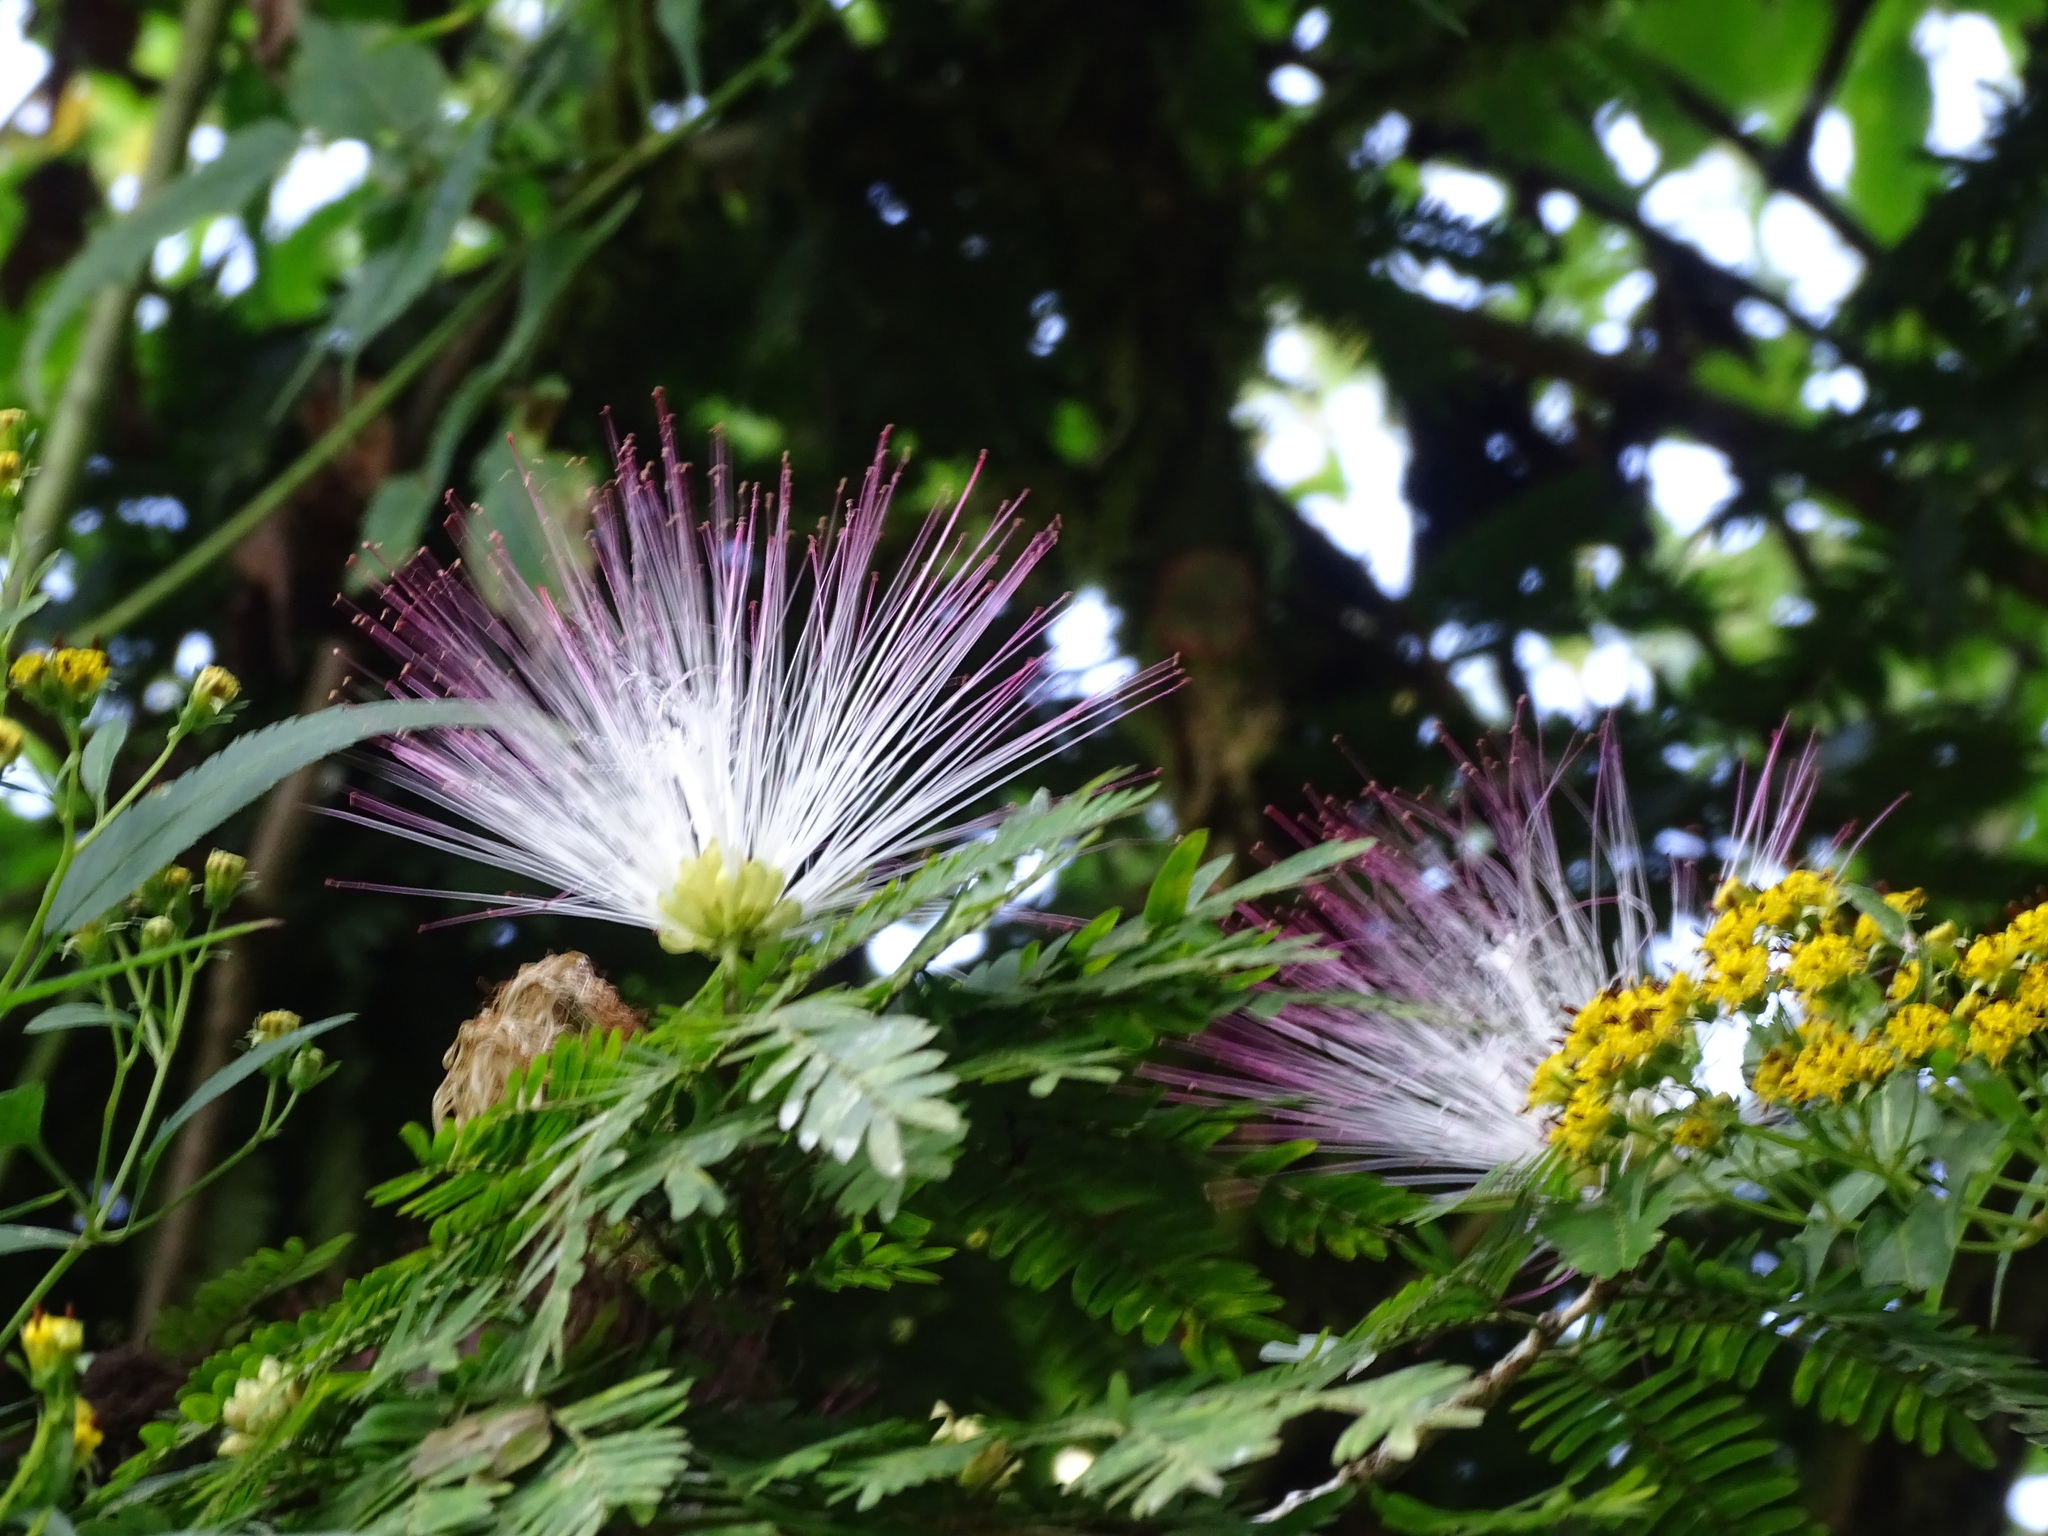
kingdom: Plantae
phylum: Tracheophyta
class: Magnoliopsida
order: Fabales
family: Fabaceae
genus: Calliandra
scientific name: Calliandra magdalenae
